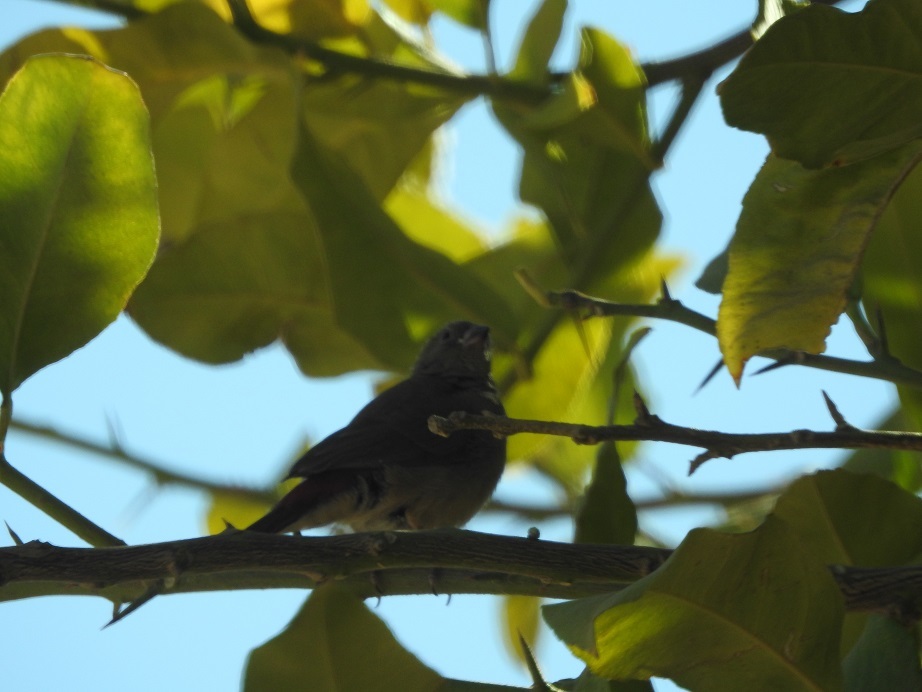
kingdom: Animalia
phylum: Chordata
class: Aves
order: Passeriformes
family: Estrildidae
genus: Lagonosticta
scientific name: Lagonosticta senegala
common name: Red-billed firefinch
